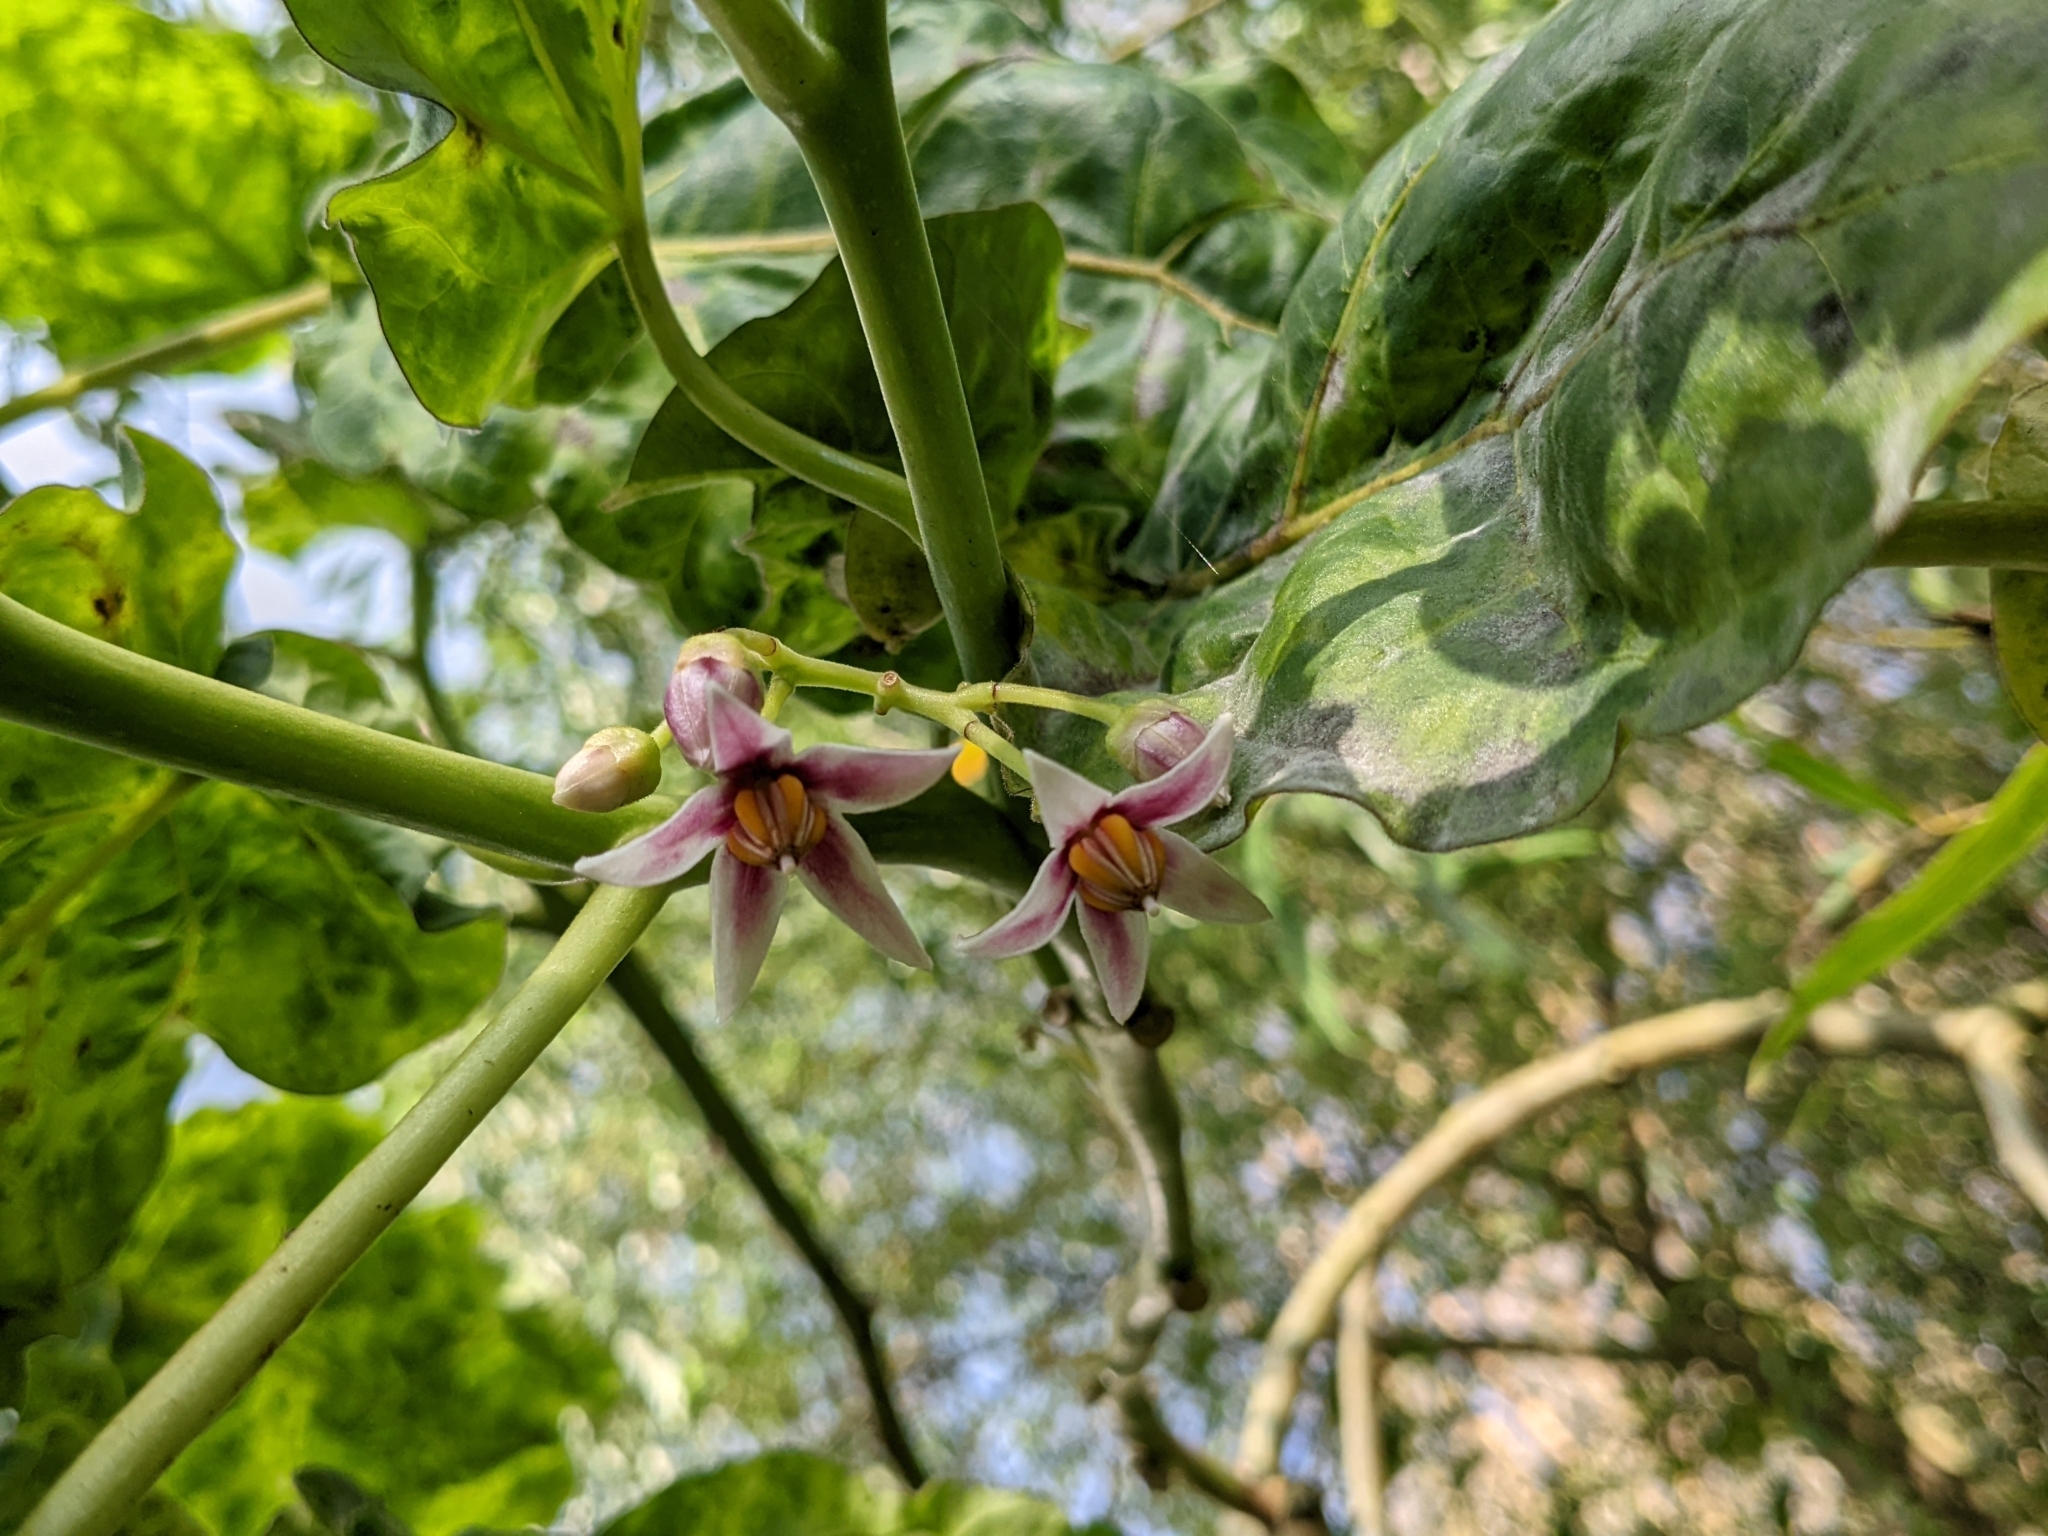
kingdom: Plantae
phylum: Tracheophyta
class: Magnoliopsida
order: Solanales
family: Solanaceae
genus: Solanum
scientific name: Solanum betaceum
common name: Tamarillo
